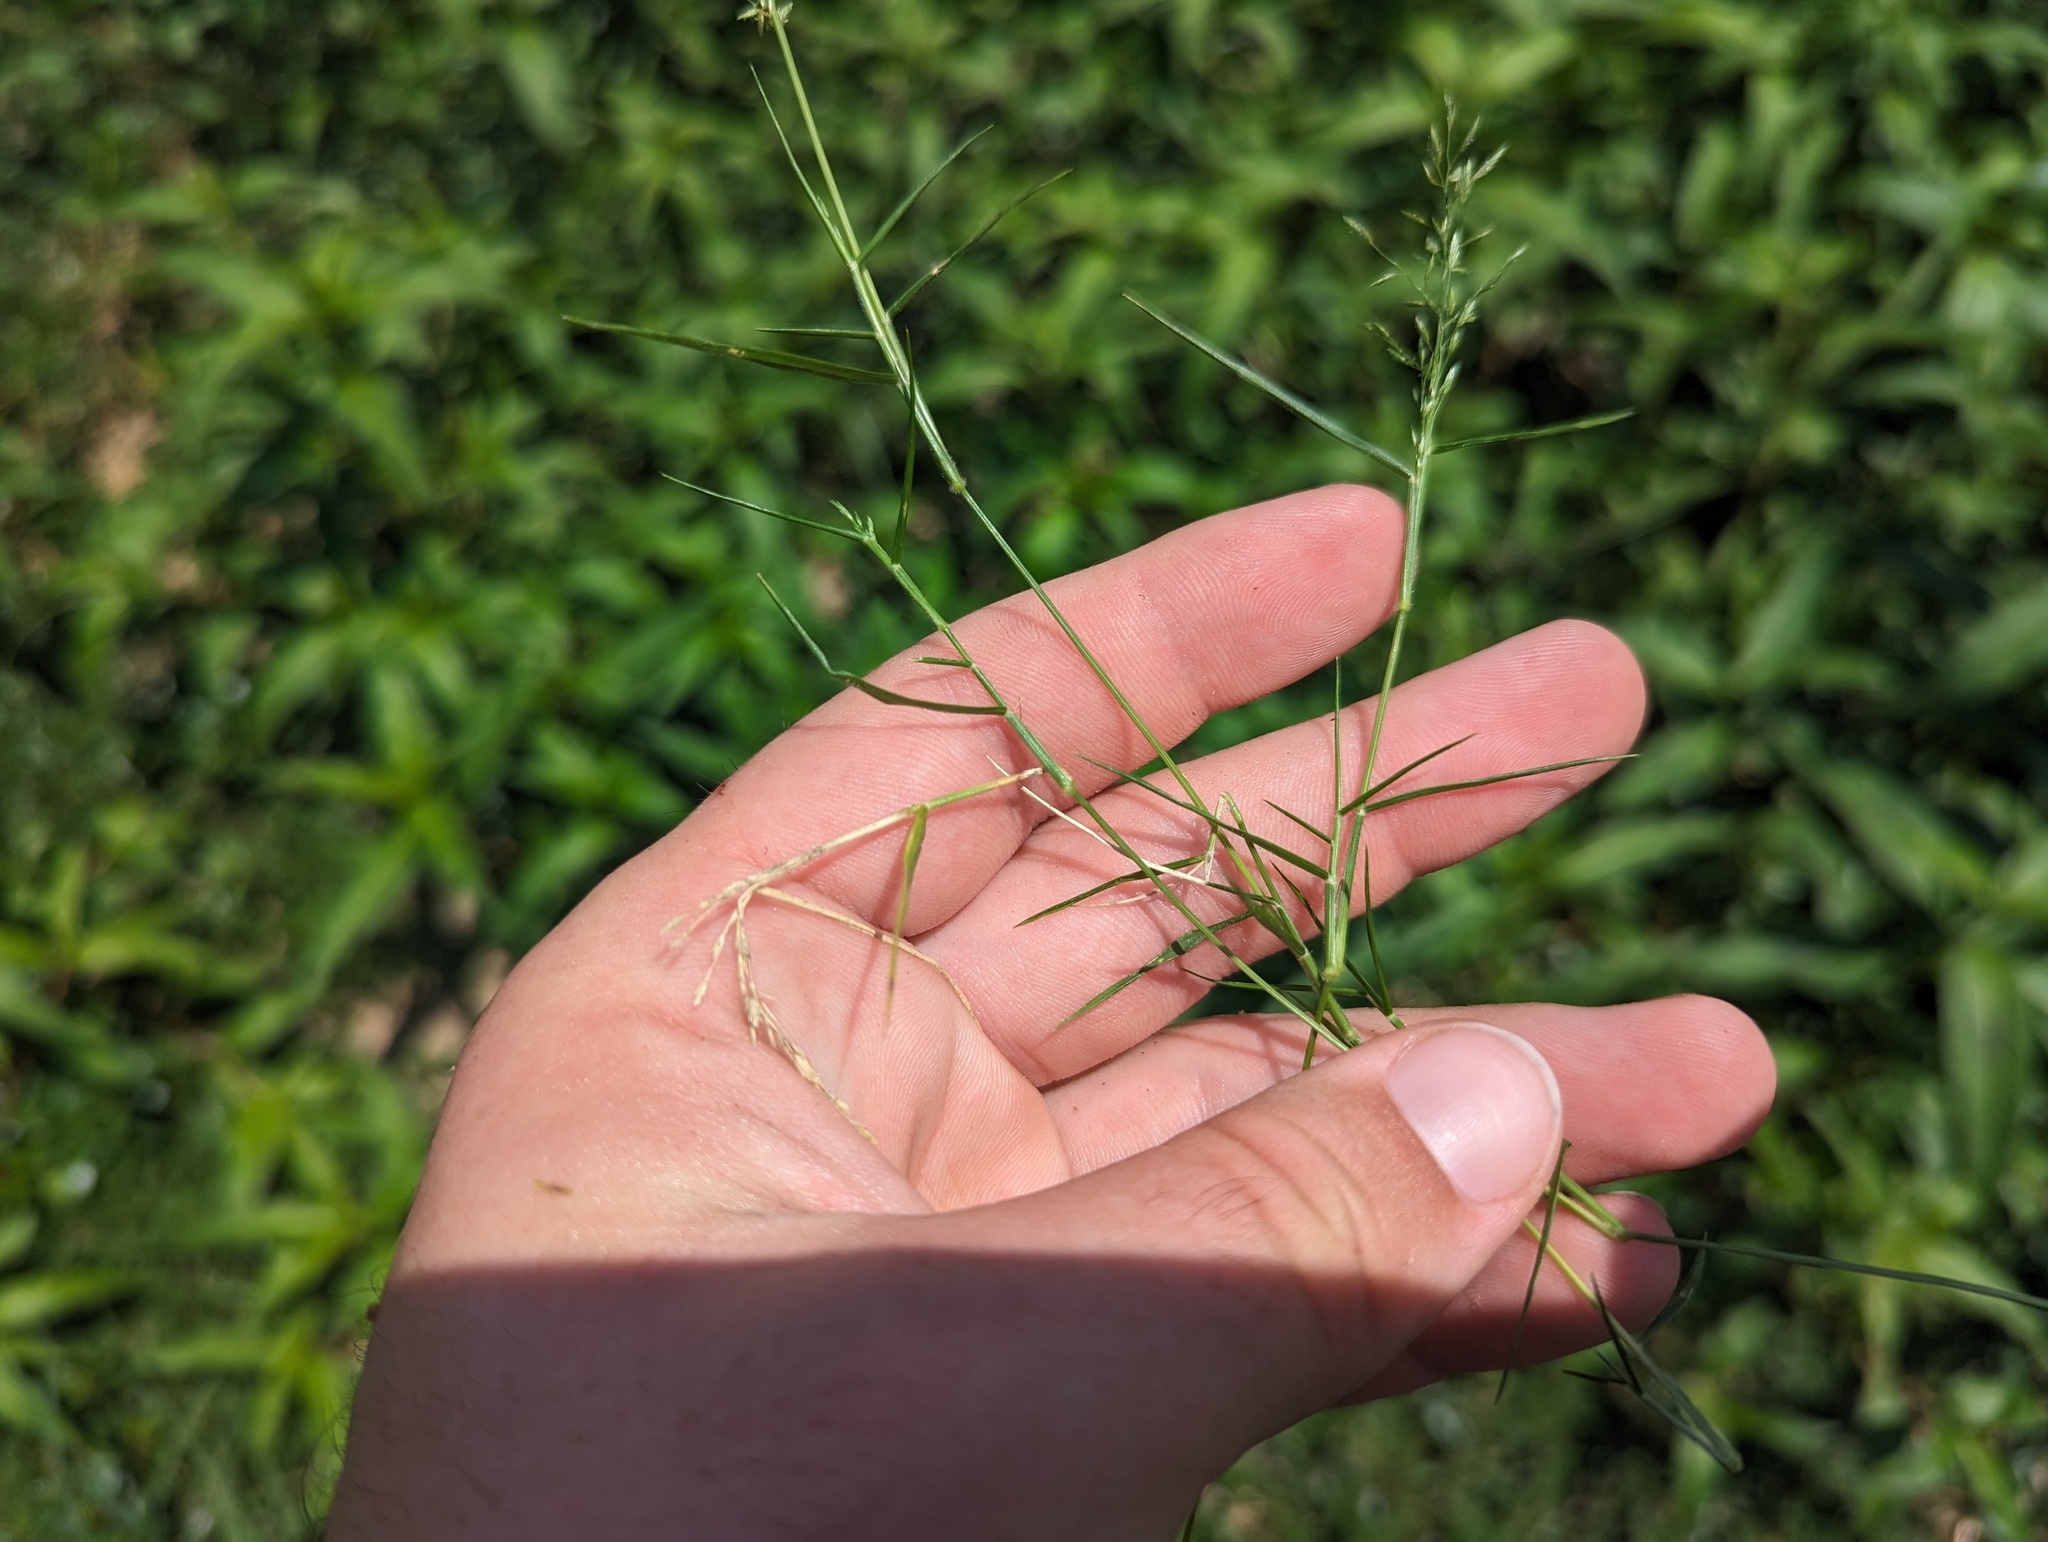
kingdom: Plantae
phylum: Tracheophyta
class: Liliopsida
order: Poales
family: Poaceae
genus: Eragrostis
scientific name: Eragrostis hypnoides
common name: Creeping love grass
